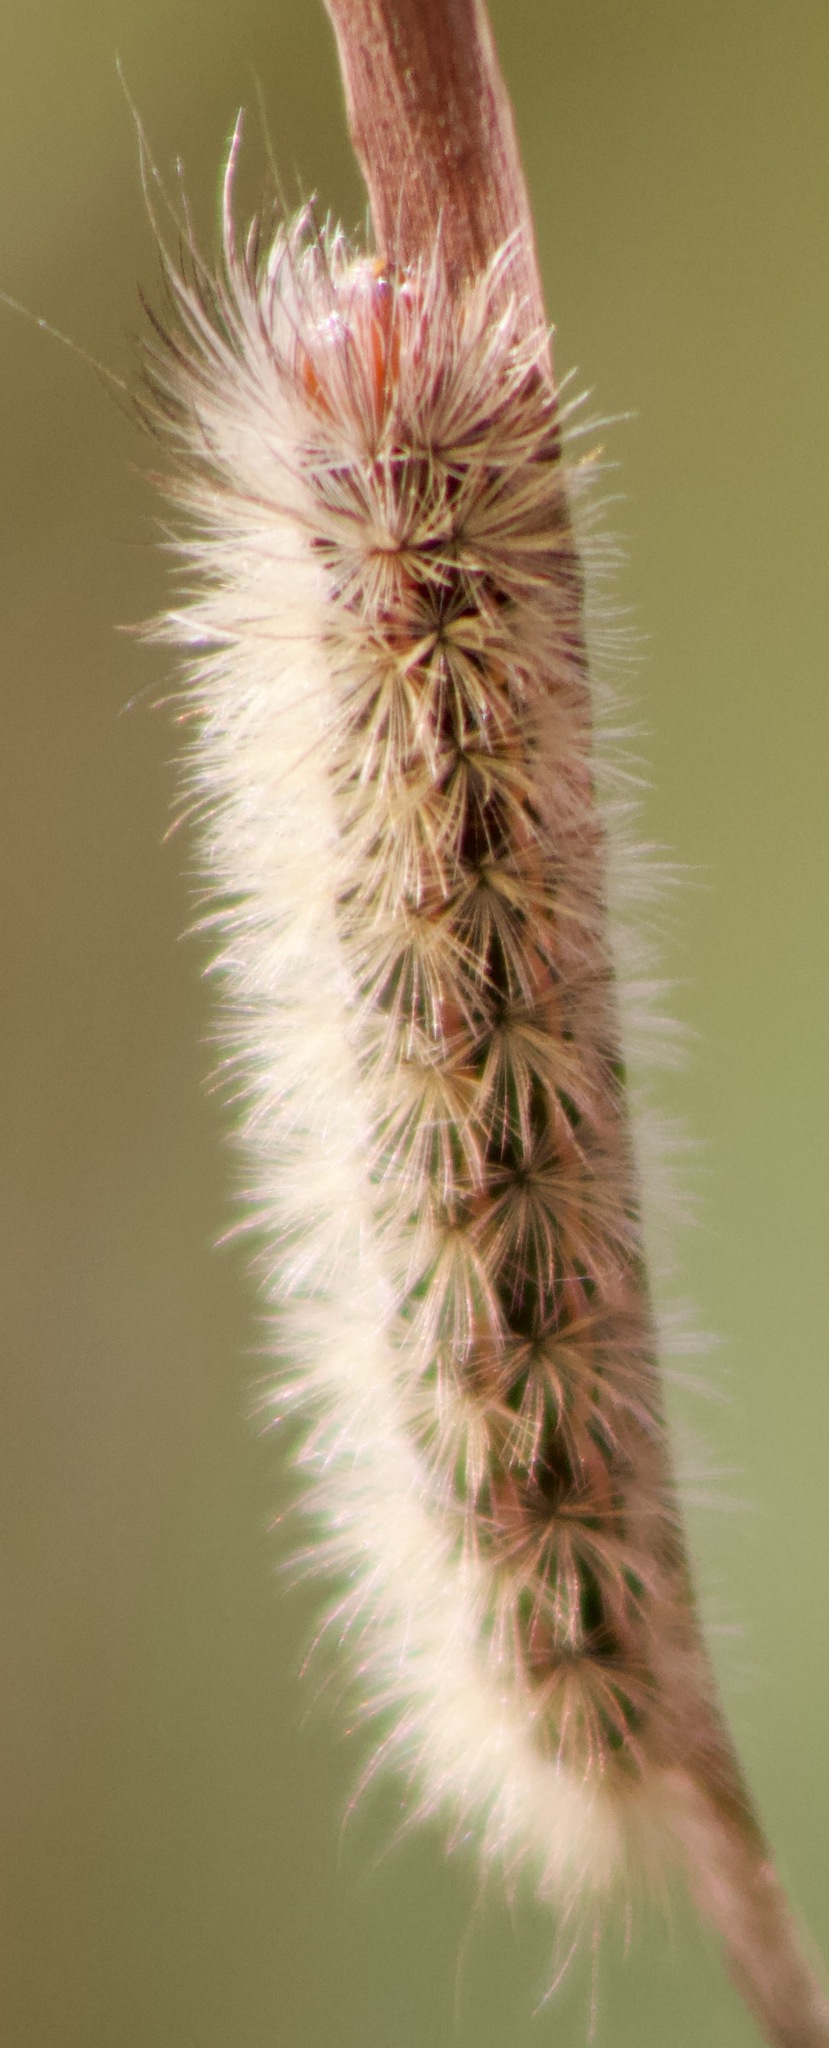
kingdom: Animalia
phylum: Arthropoda
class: Insecta
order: Lepidoptera
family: Erebidae
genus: Ctenucha
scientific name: Ctenucha vittigerum
